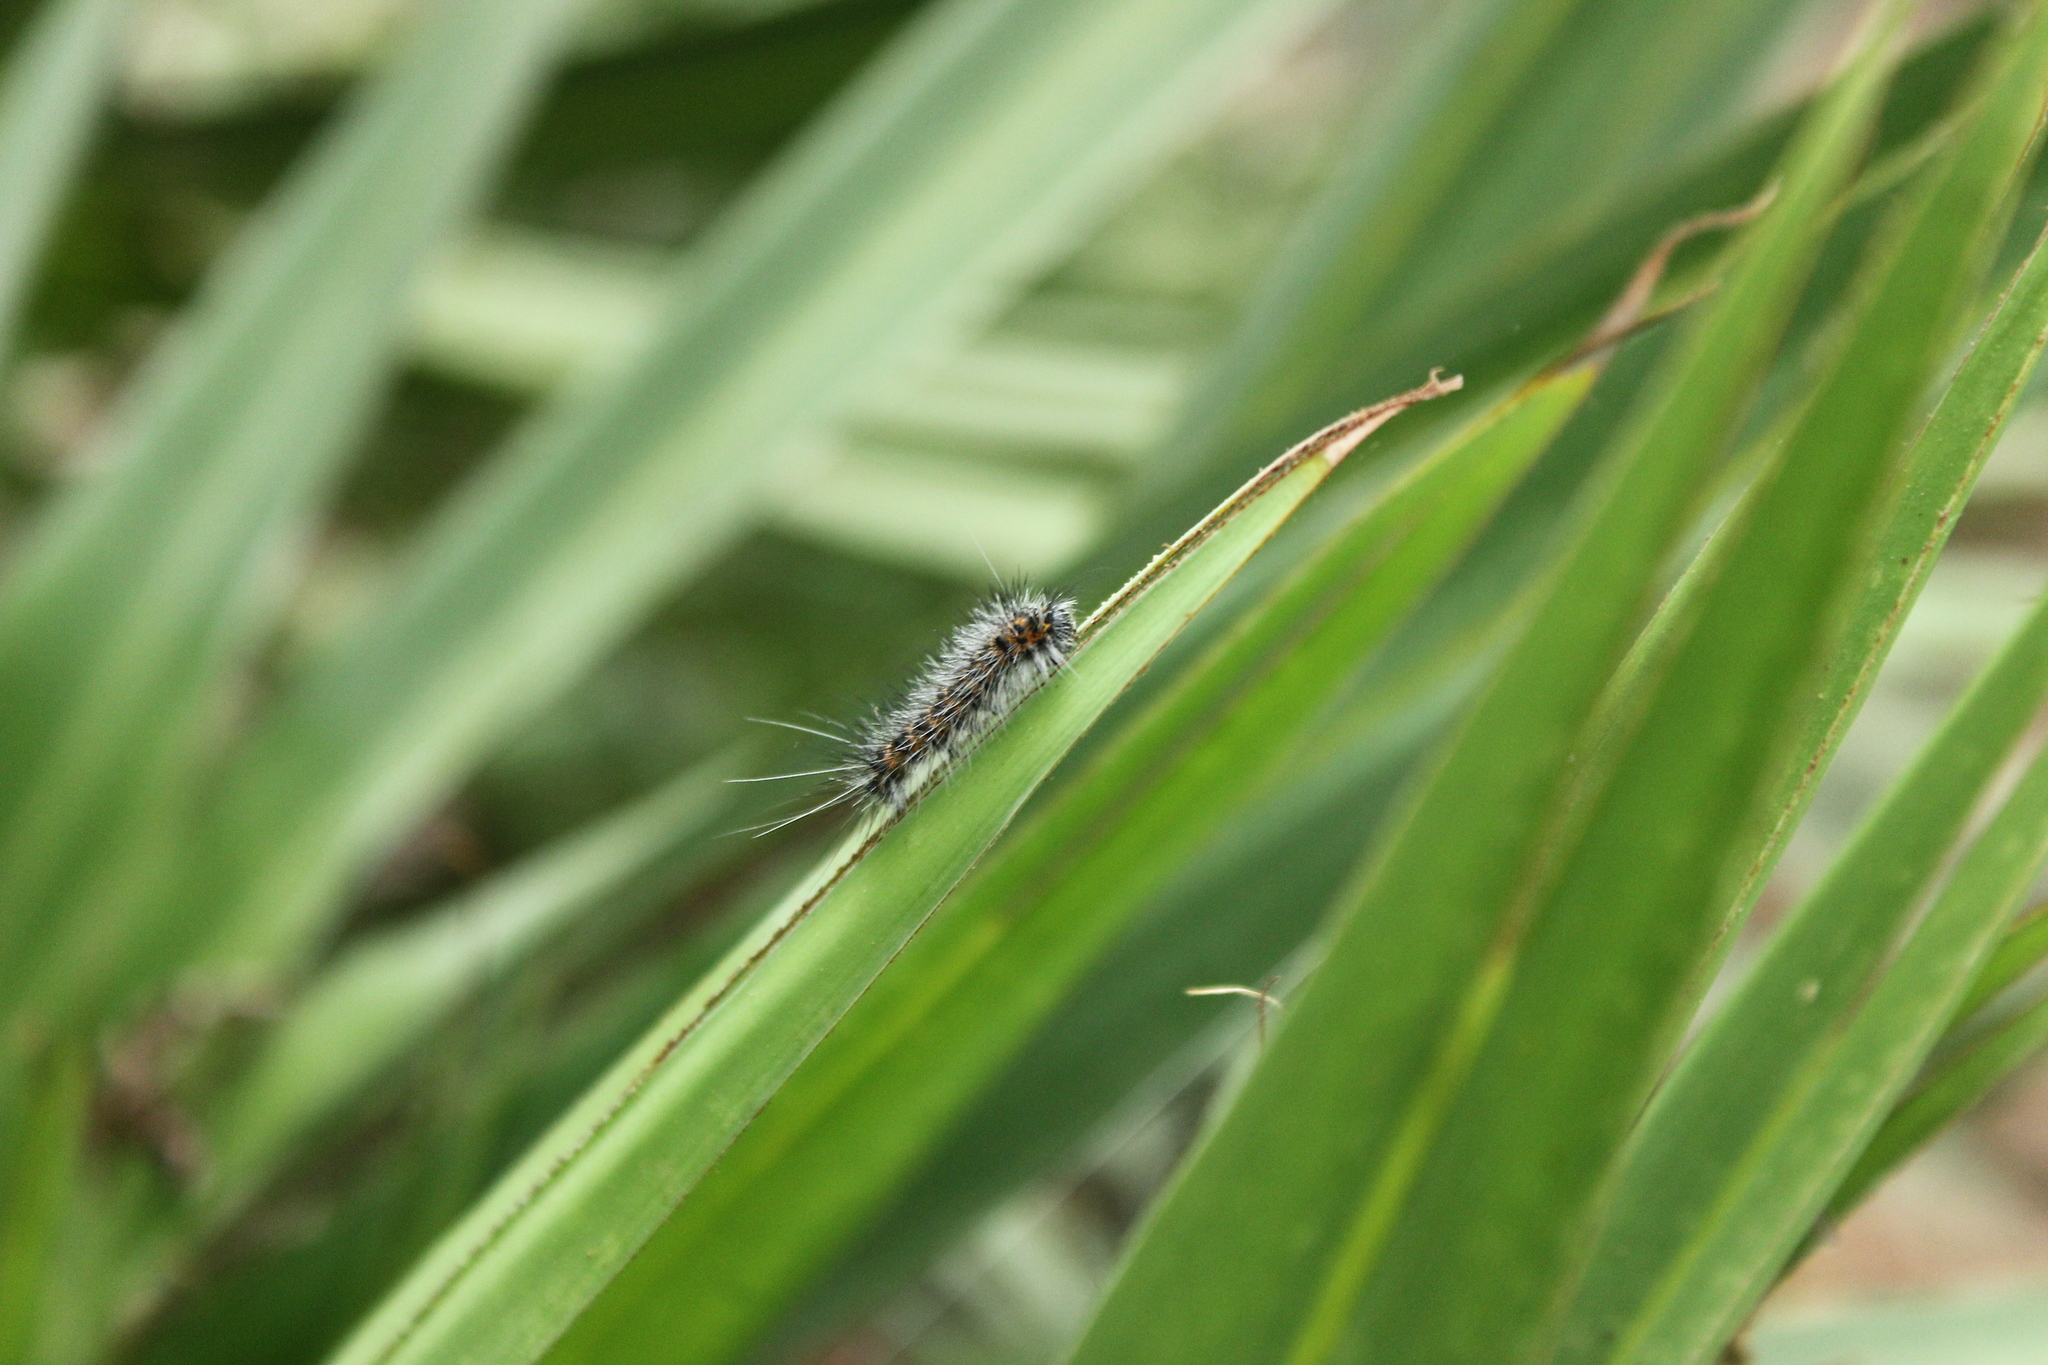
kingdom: Animalia
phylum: Arthropoda
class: Insecta
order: Lepidoptera
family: Erebidae
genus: Spilosoma
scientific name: Spilosoma dubia
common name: Dubious tiger moth
